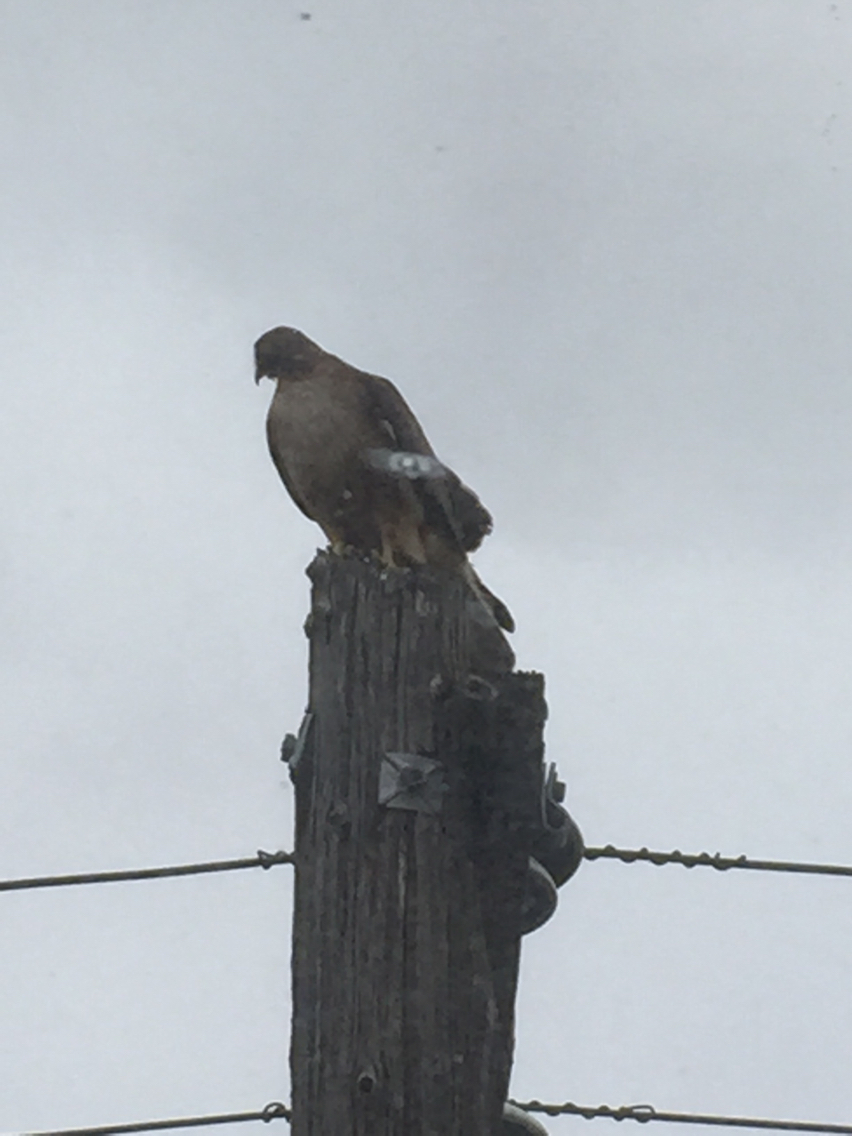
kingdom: Animalia
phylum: Chordata
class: Aves
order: Accipitriformes
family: Accipitridae
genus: Buteo
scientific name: Buteo jamaicensis
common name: Red-tailed hawk
